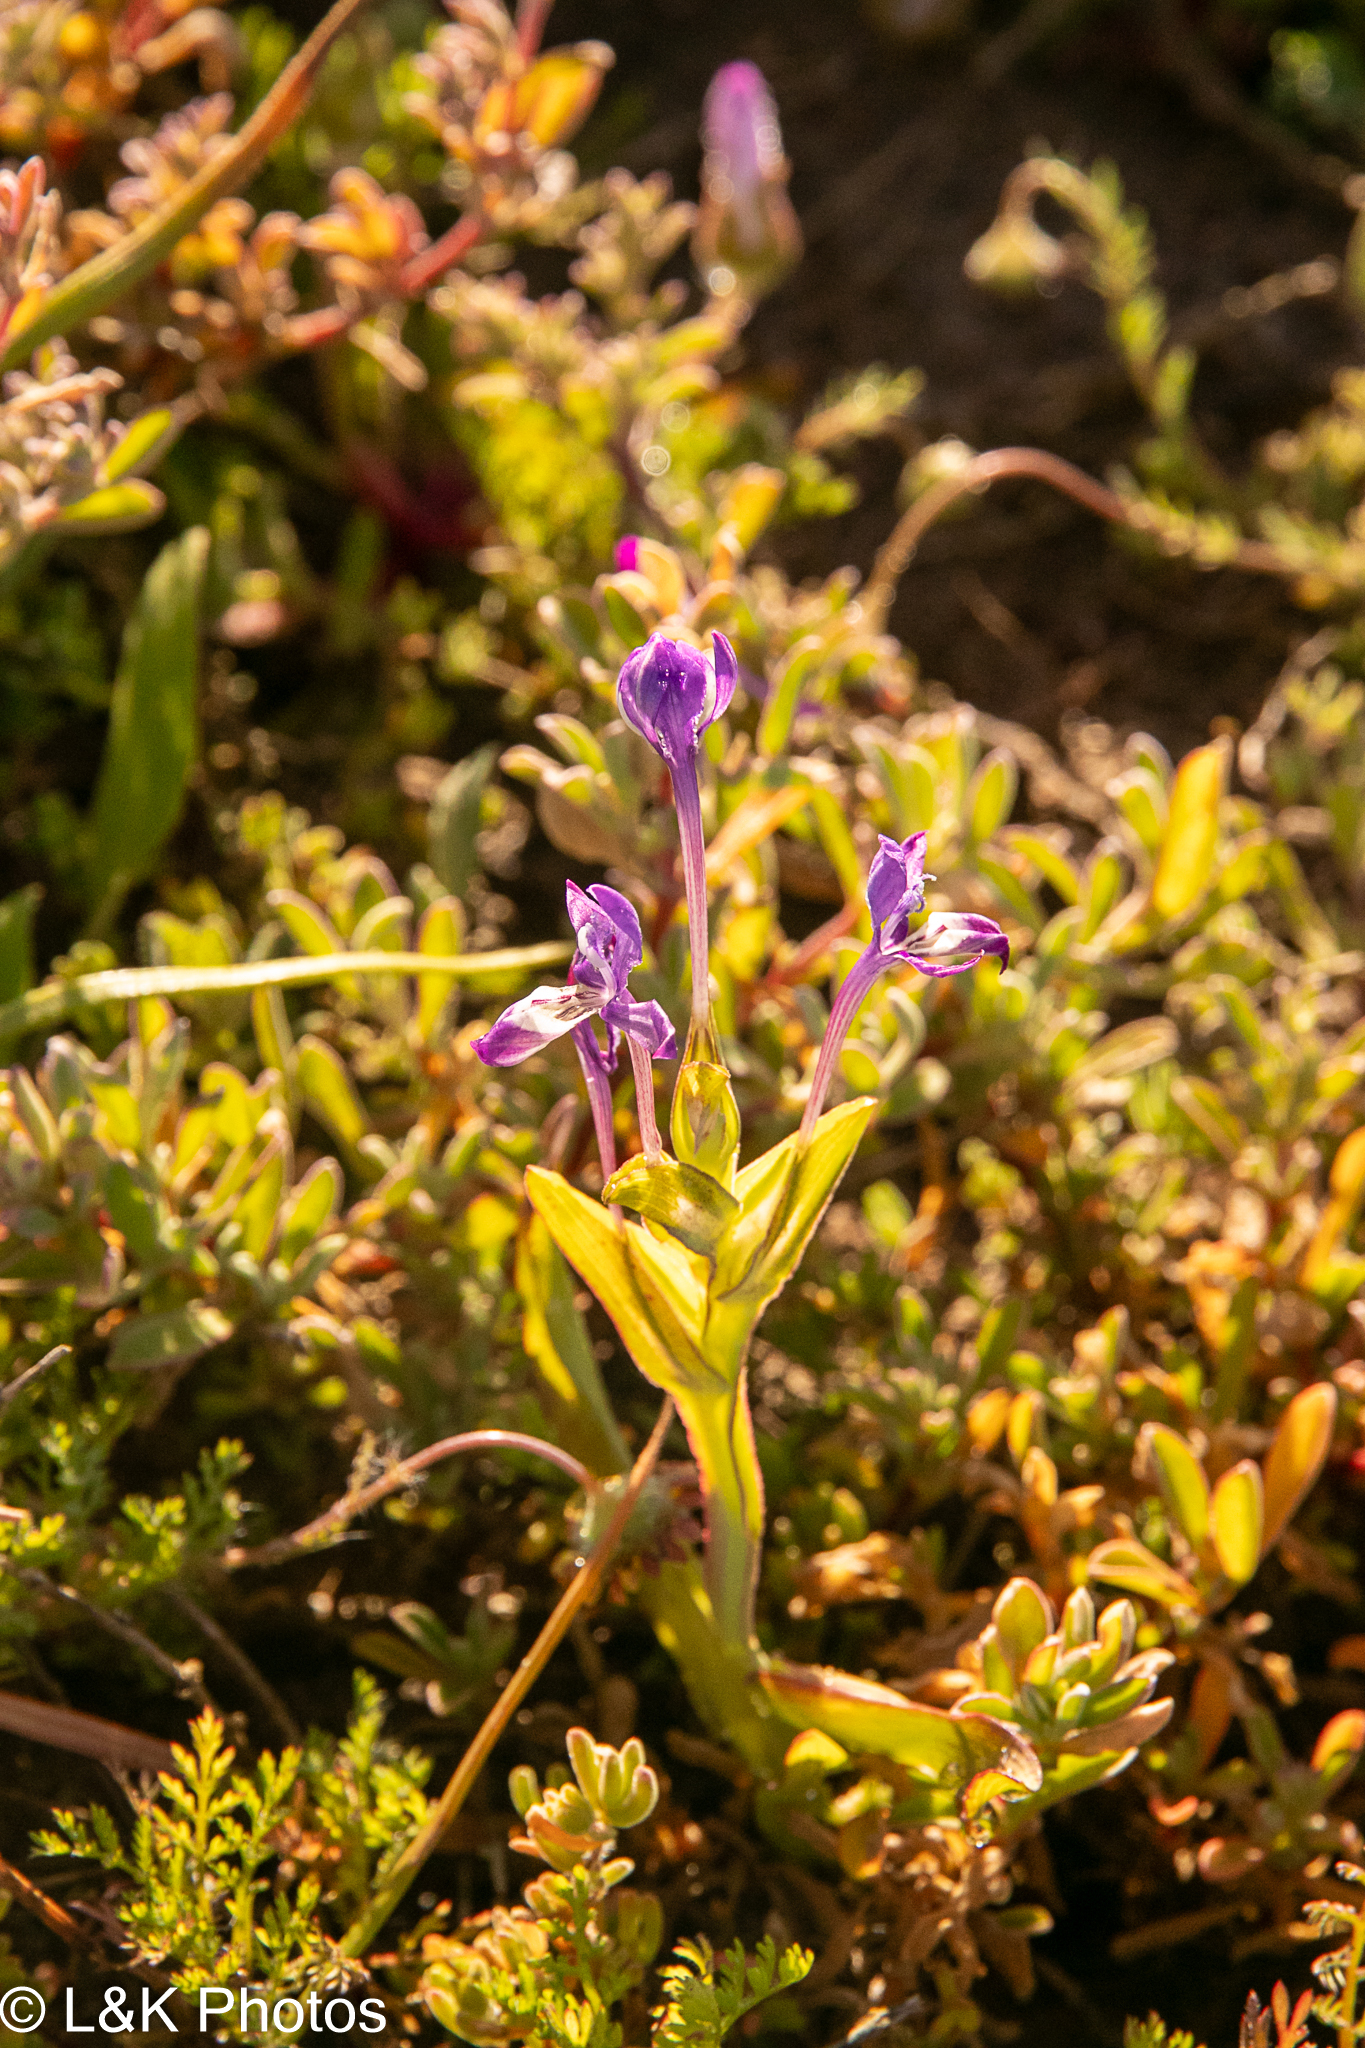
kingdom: Plantae
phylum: Tracheophyta
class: Liliopsida
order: Asparagales
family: Iridaceae
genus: Lapeirousia
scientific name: Lapeirousia jacquinii
